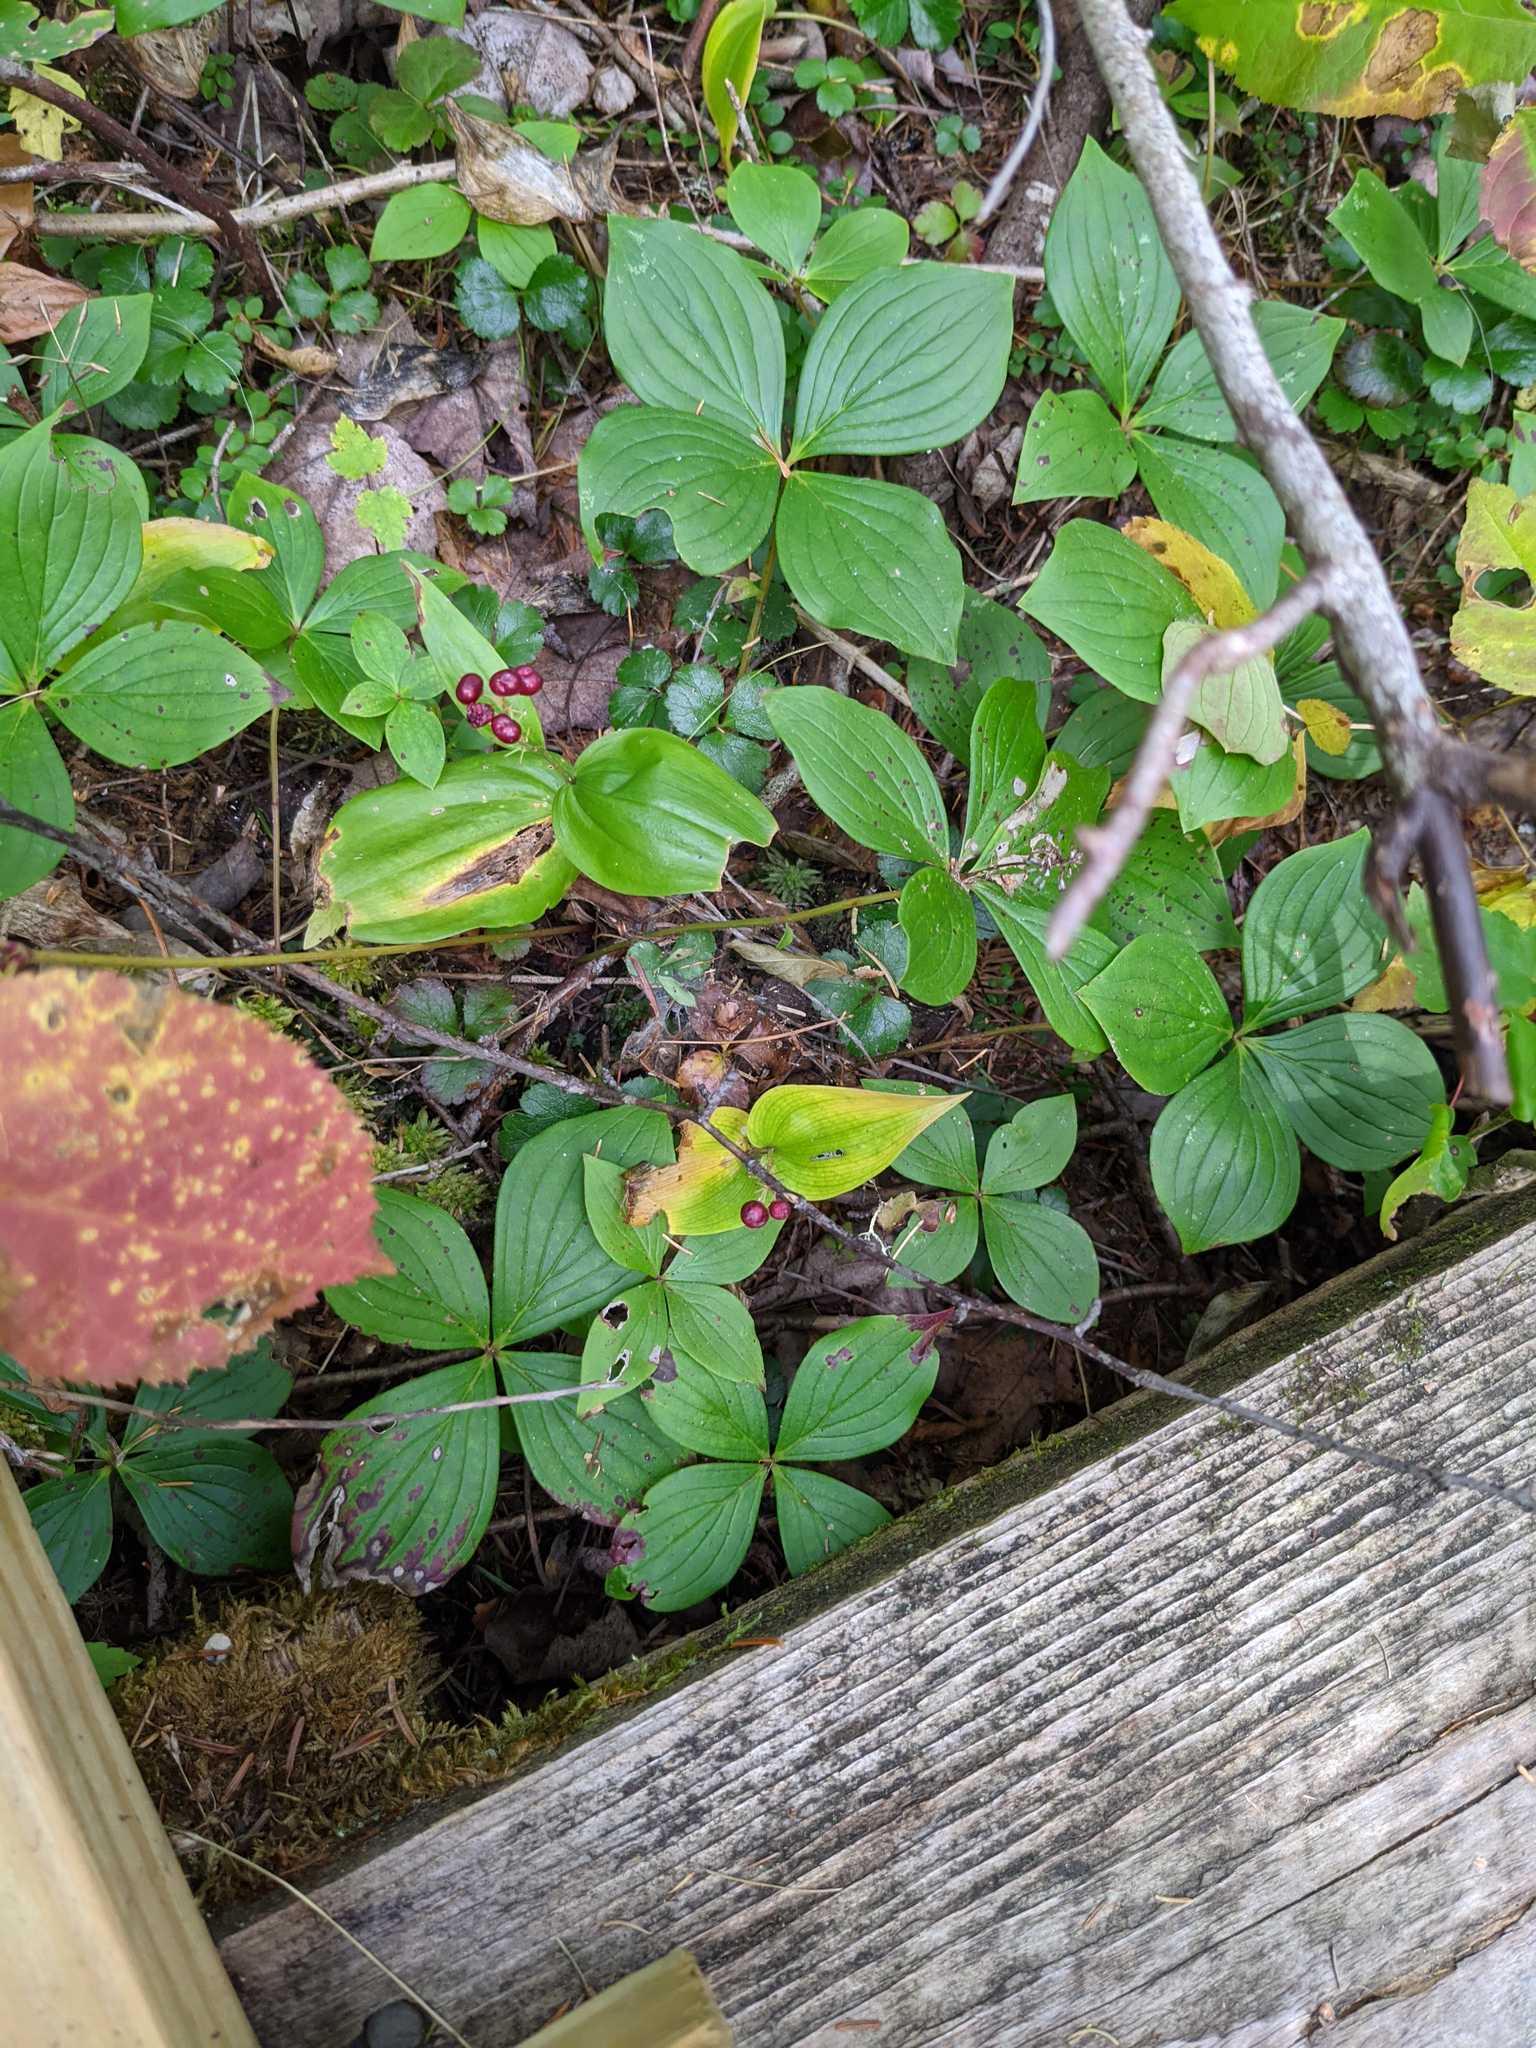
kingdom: Plantae
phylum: Tracheophyta
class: Magnoliopsida
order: Cornales
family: Cornaceae
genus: Cornus
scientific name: Cornus canadensis
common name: Creeping dogwood
